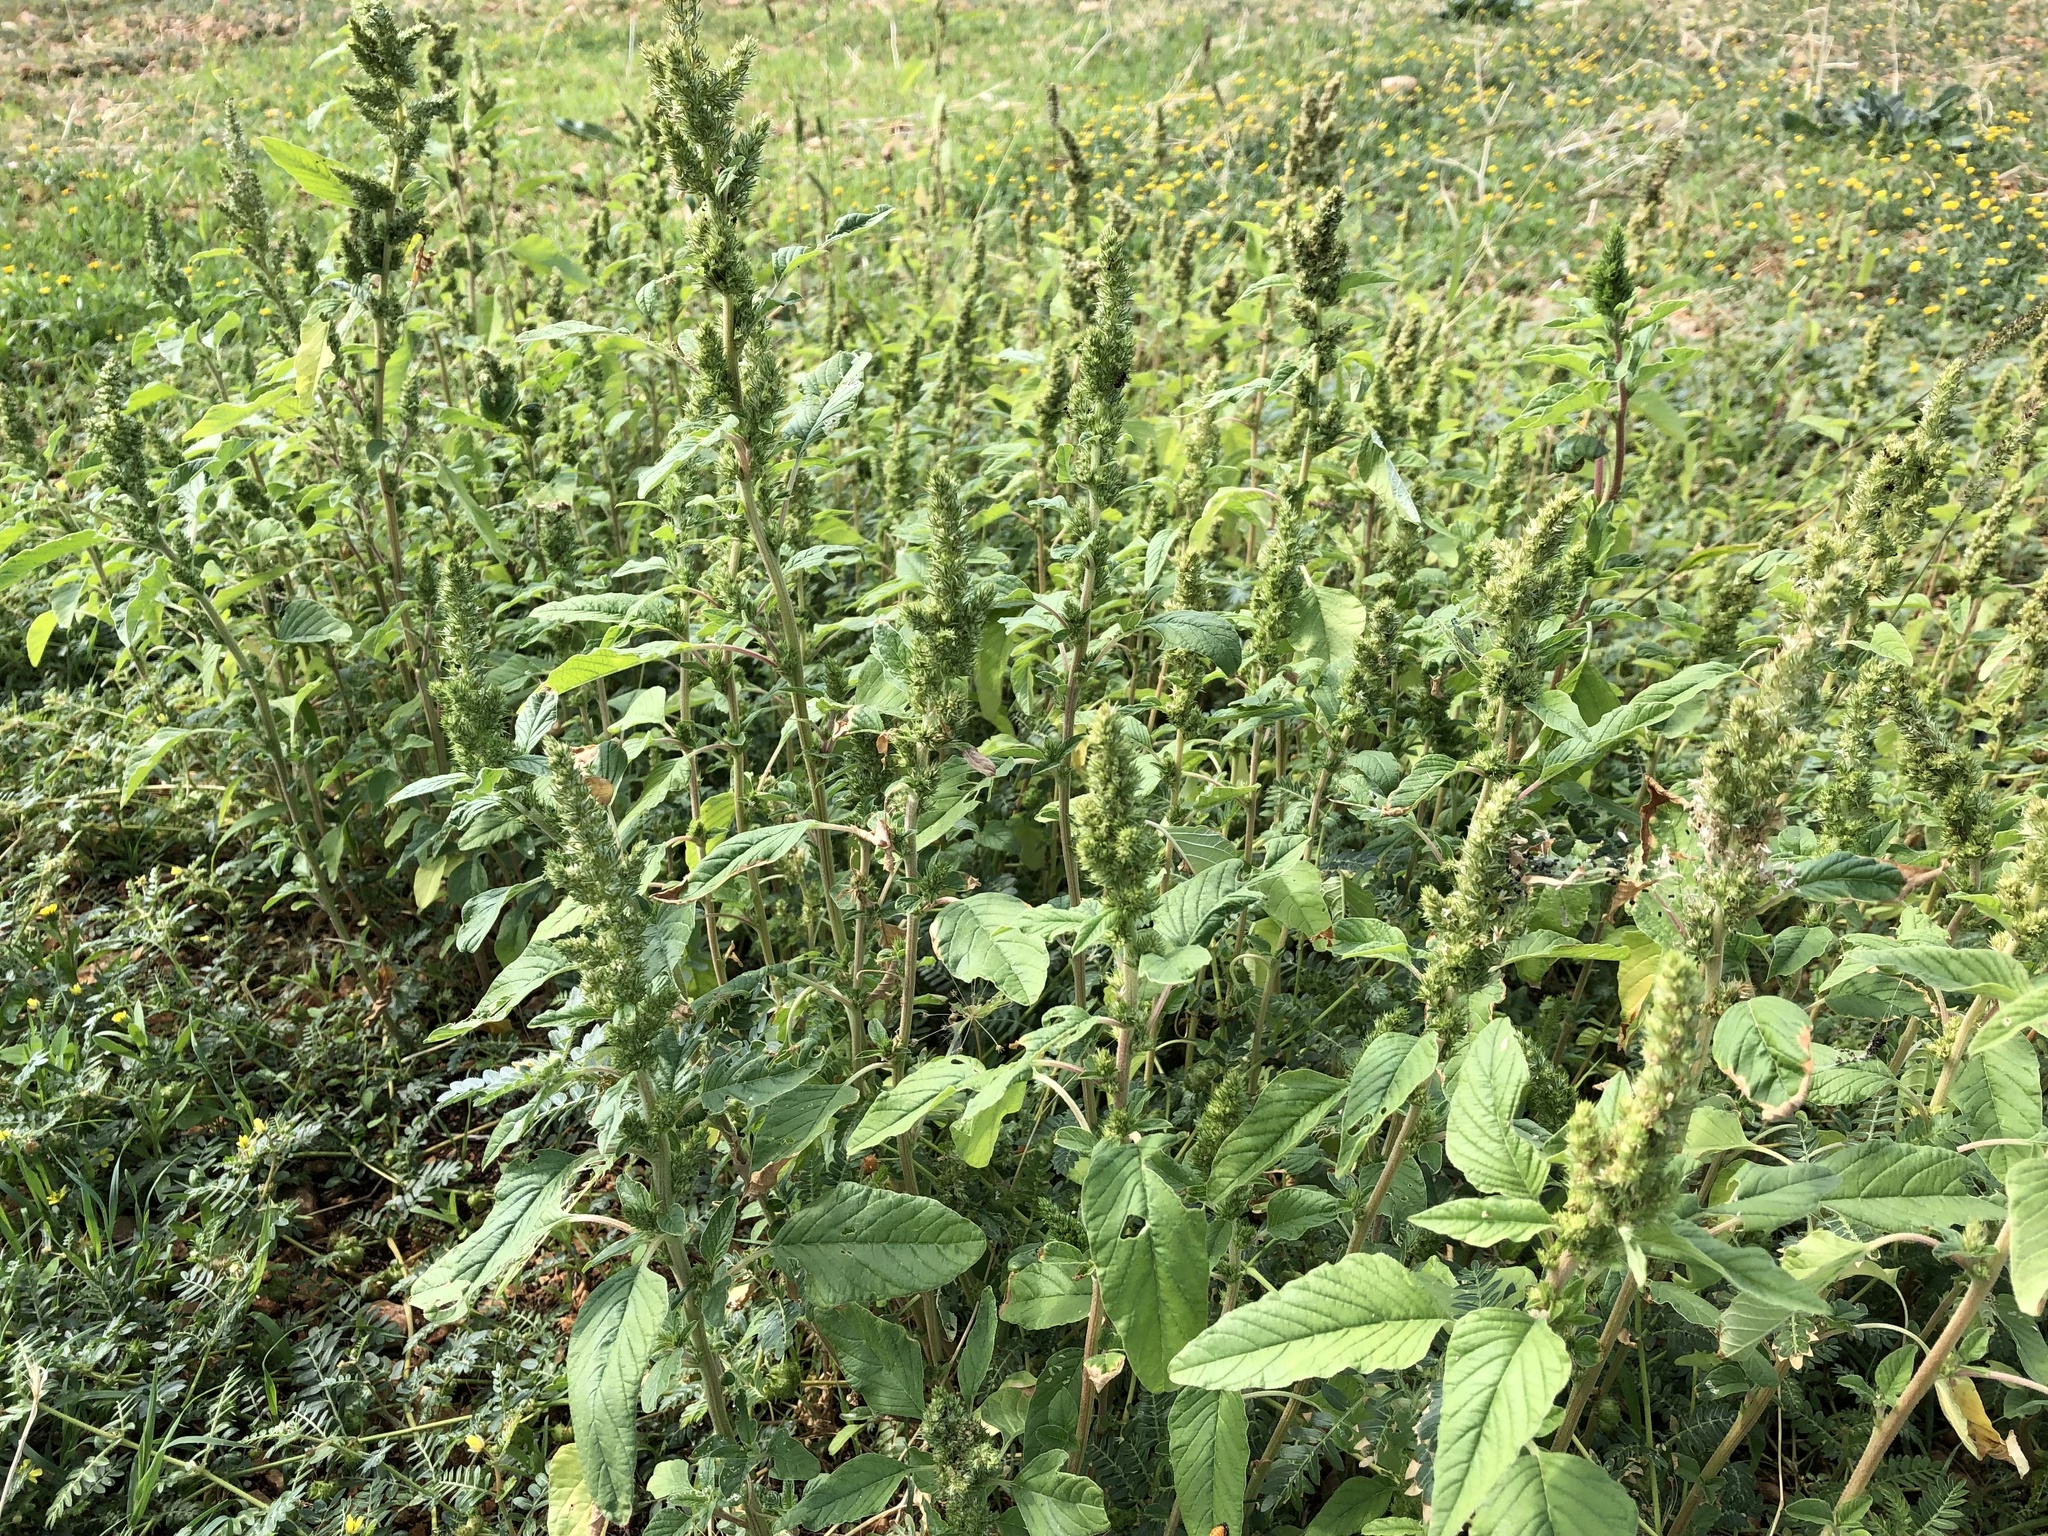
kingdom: Plantae
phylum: Tracheophyta
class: Magnoliopsida
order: Caryophyllales
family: Amaranthaceae
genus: Amaranthus
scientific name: Amaranthus retroflexus
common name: Redroot amaranth
